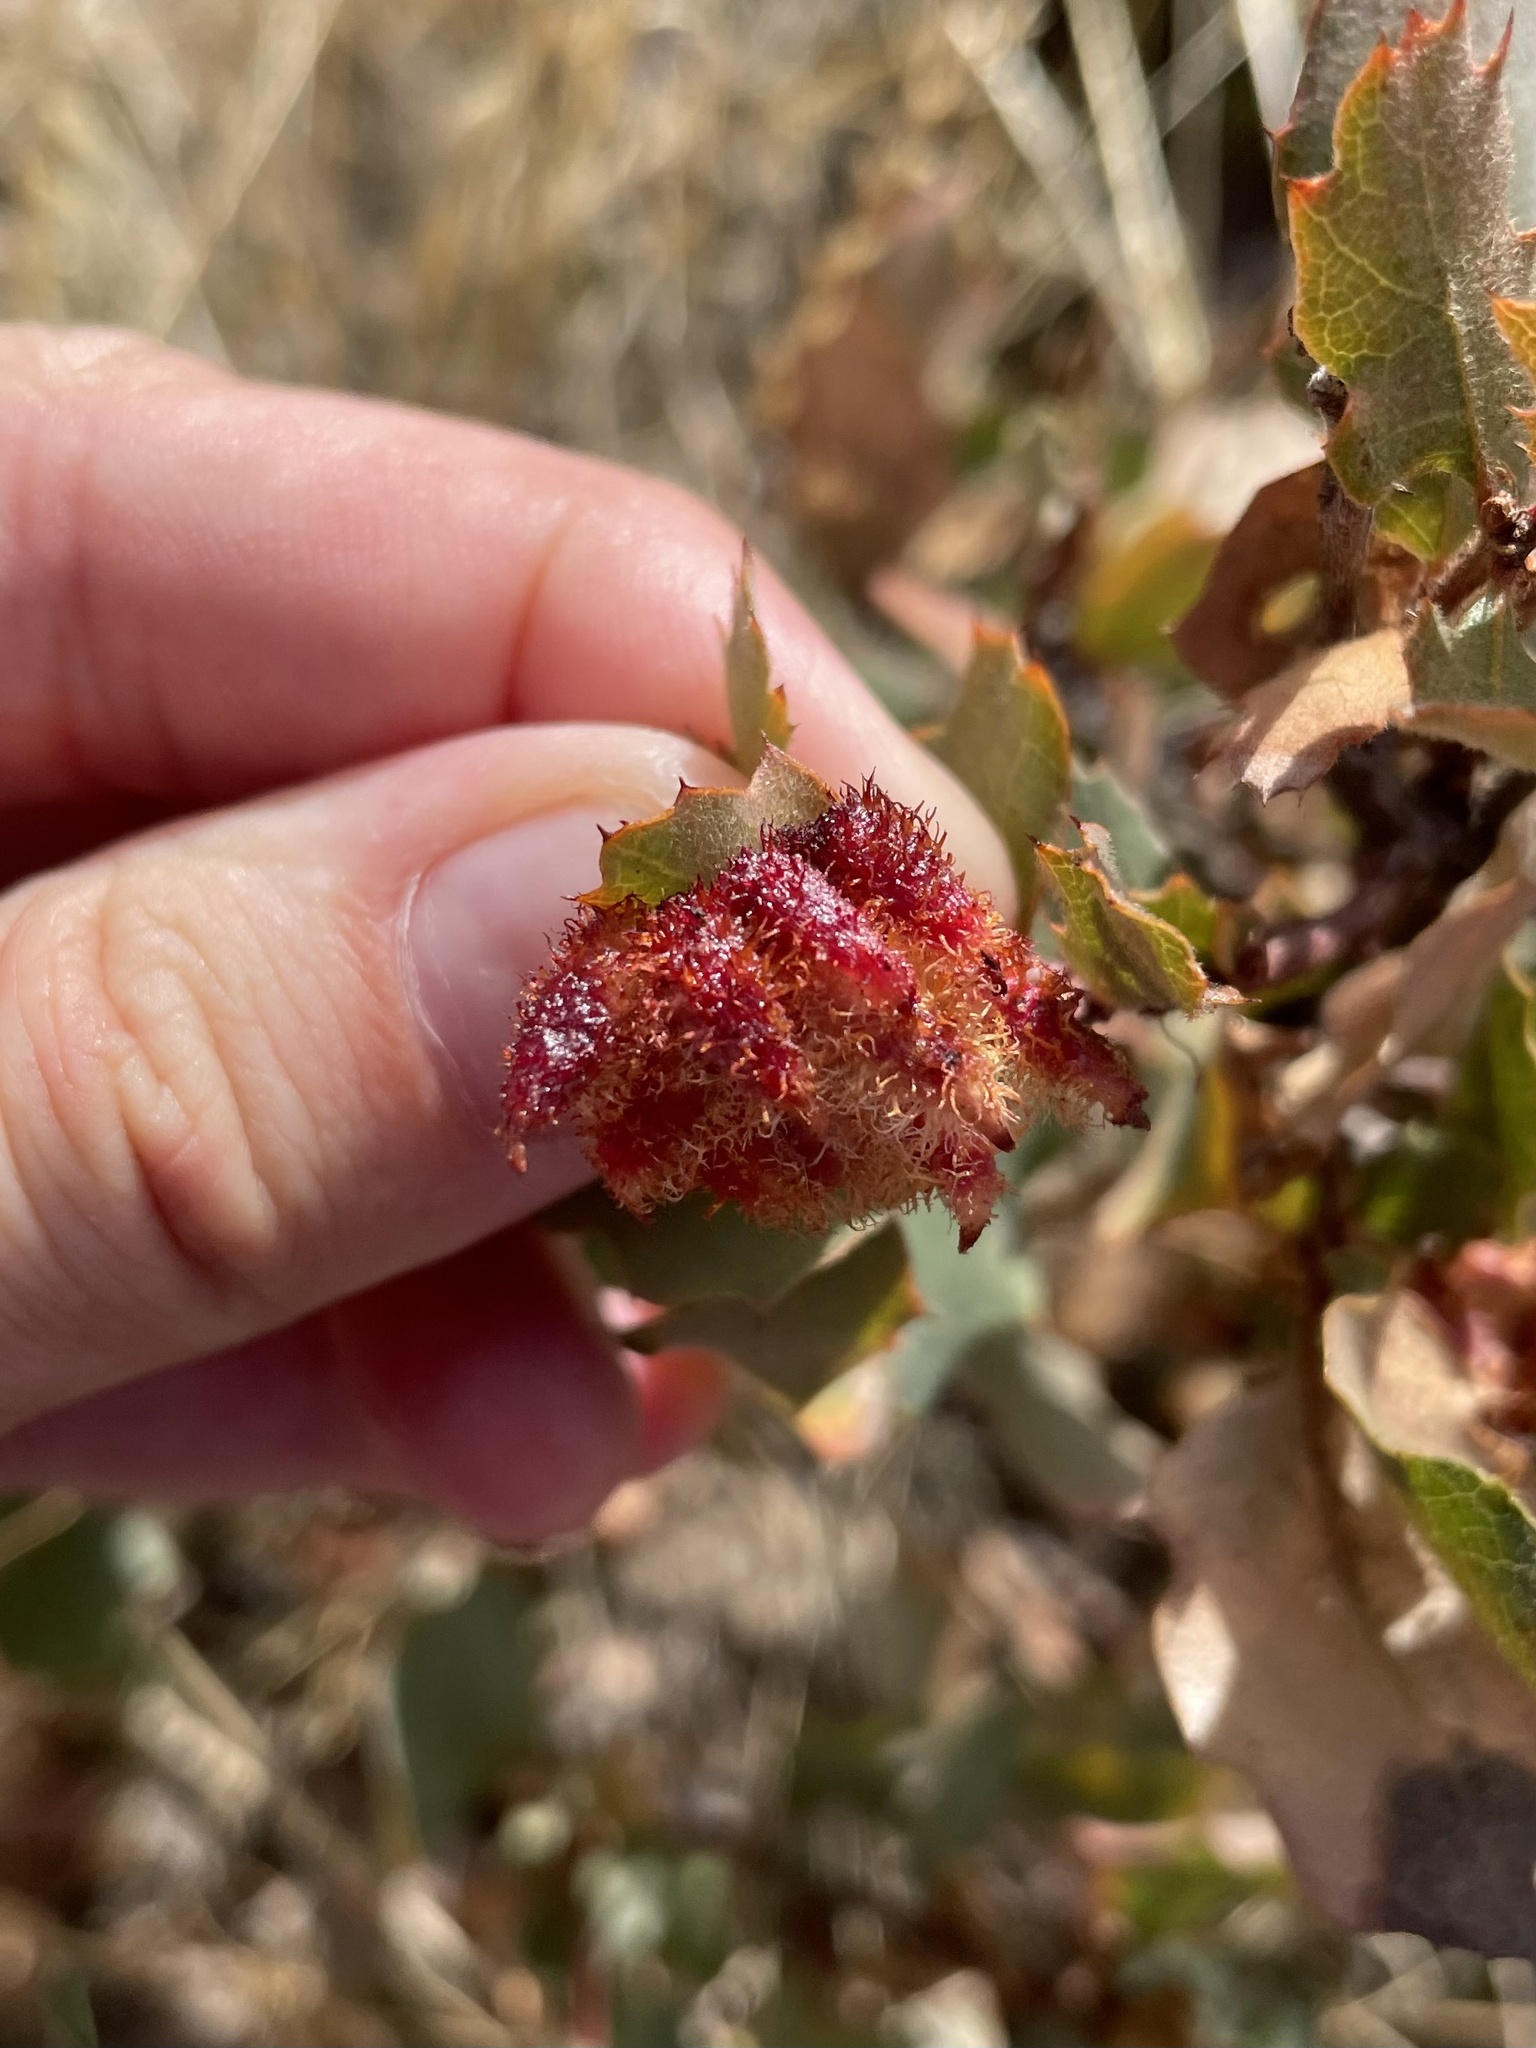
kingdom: Animalia
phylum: Arthropoda
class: Insecta
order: Hymenoptera
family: Cynipidae
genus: Andricus
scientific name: Andricus
